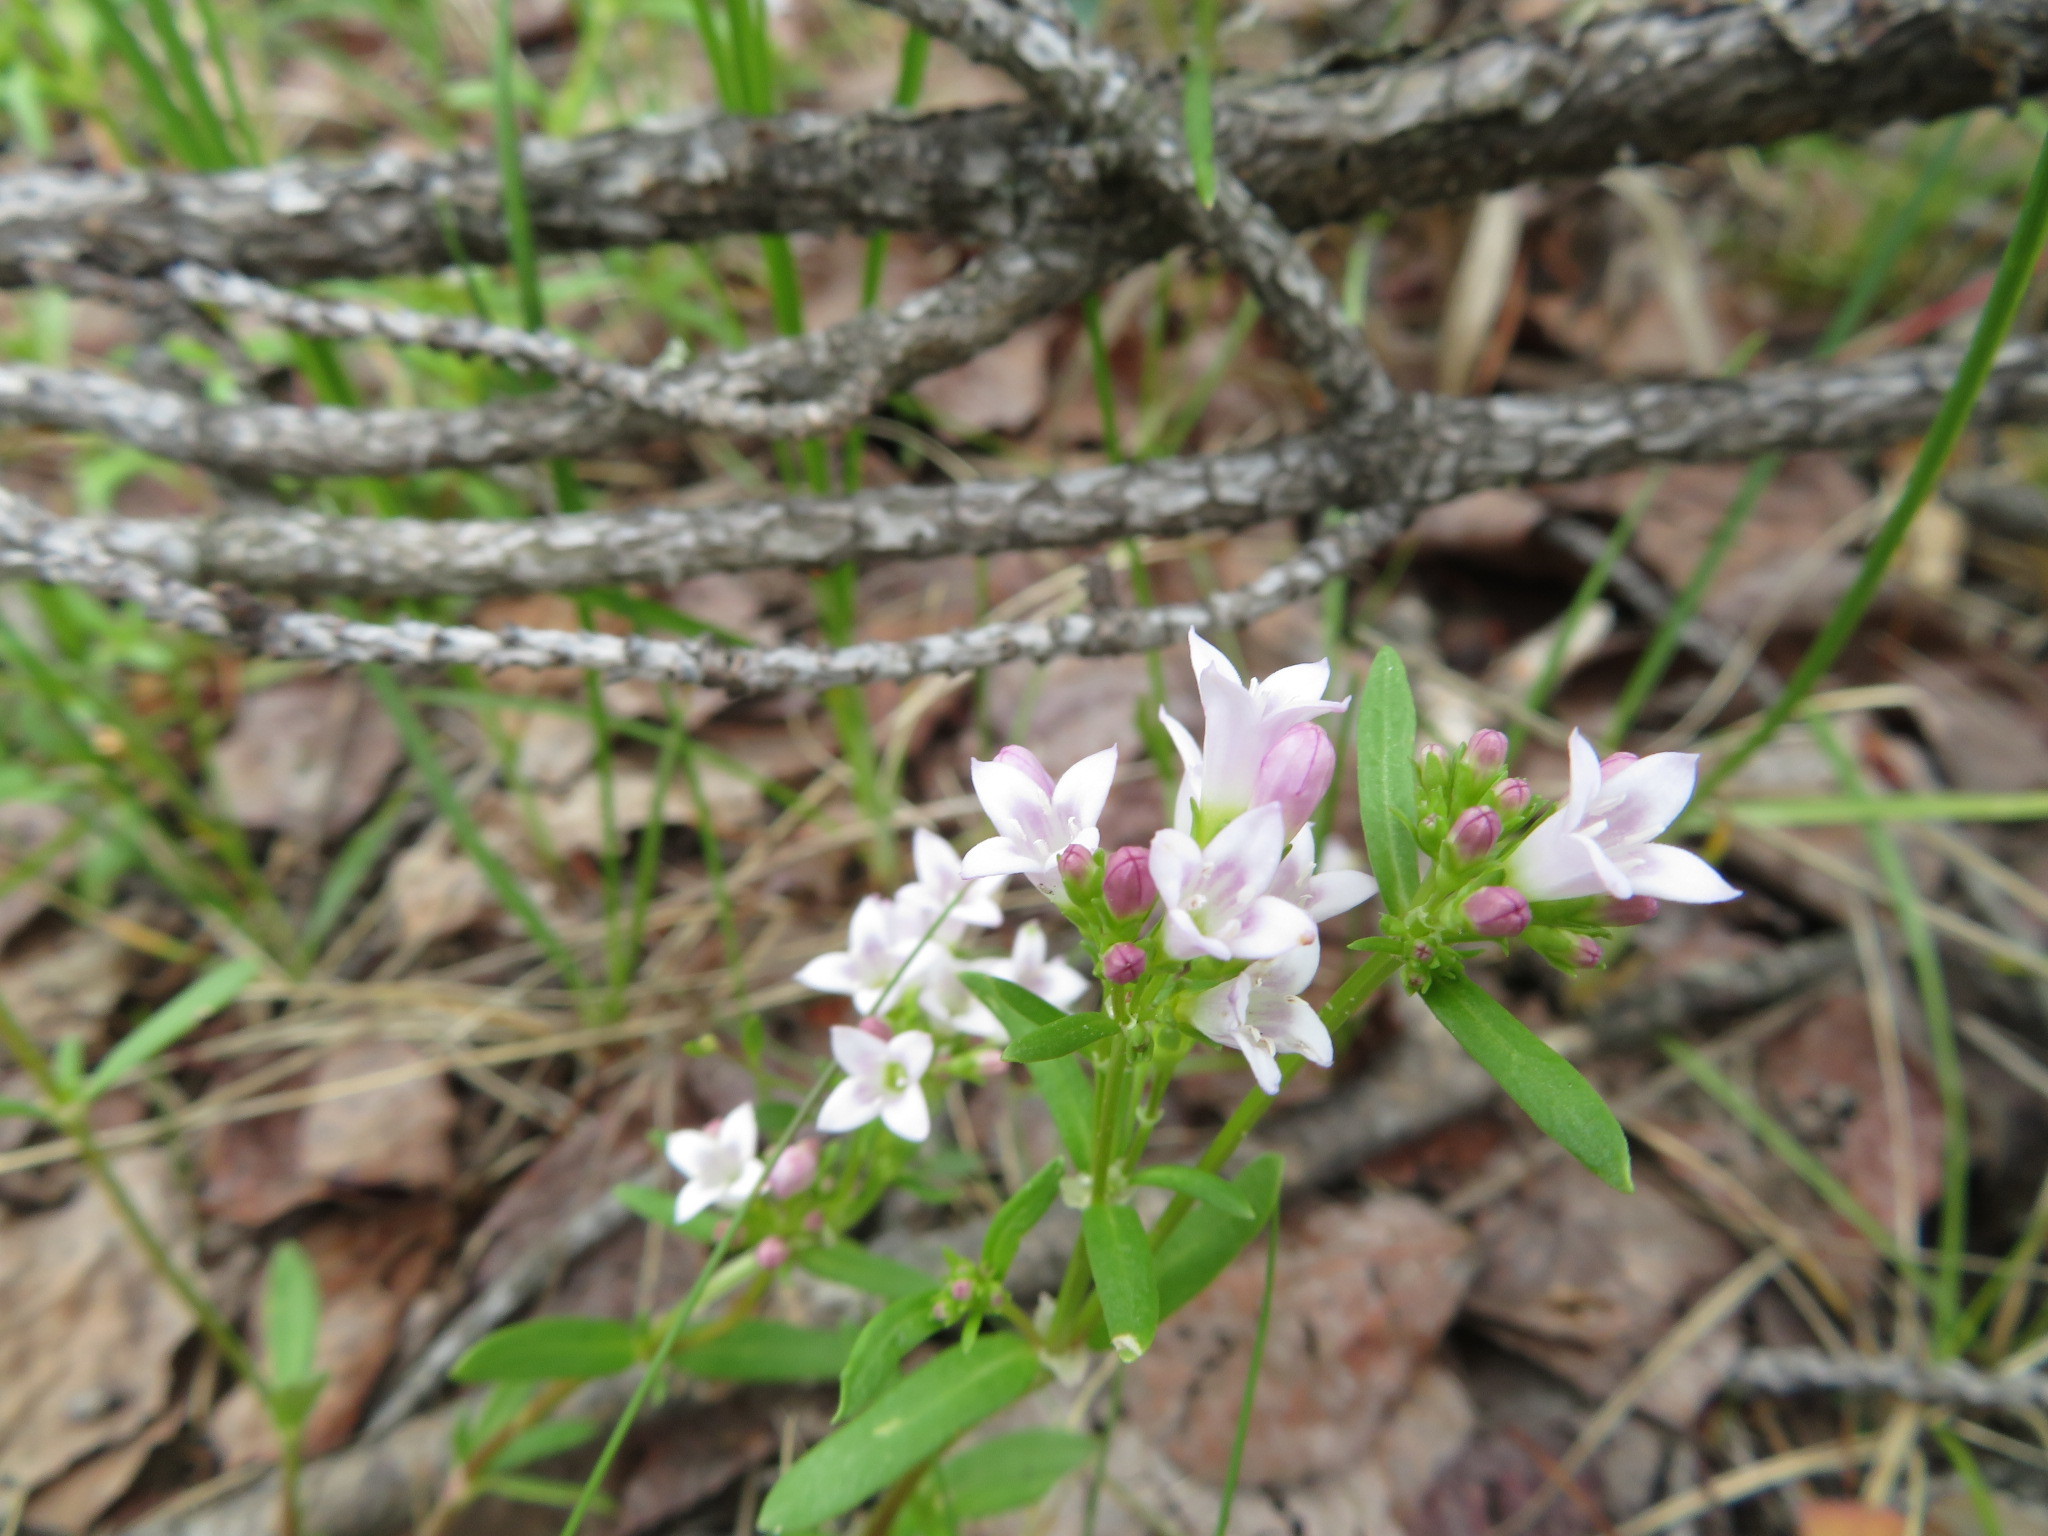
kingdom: Plantae
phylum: Tracheophyta
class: Magnoliopsida
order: Gentianales
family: Rubiaceae
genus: Houstonia
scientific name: Houstonia longifolia
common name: Long-leaved bluets
